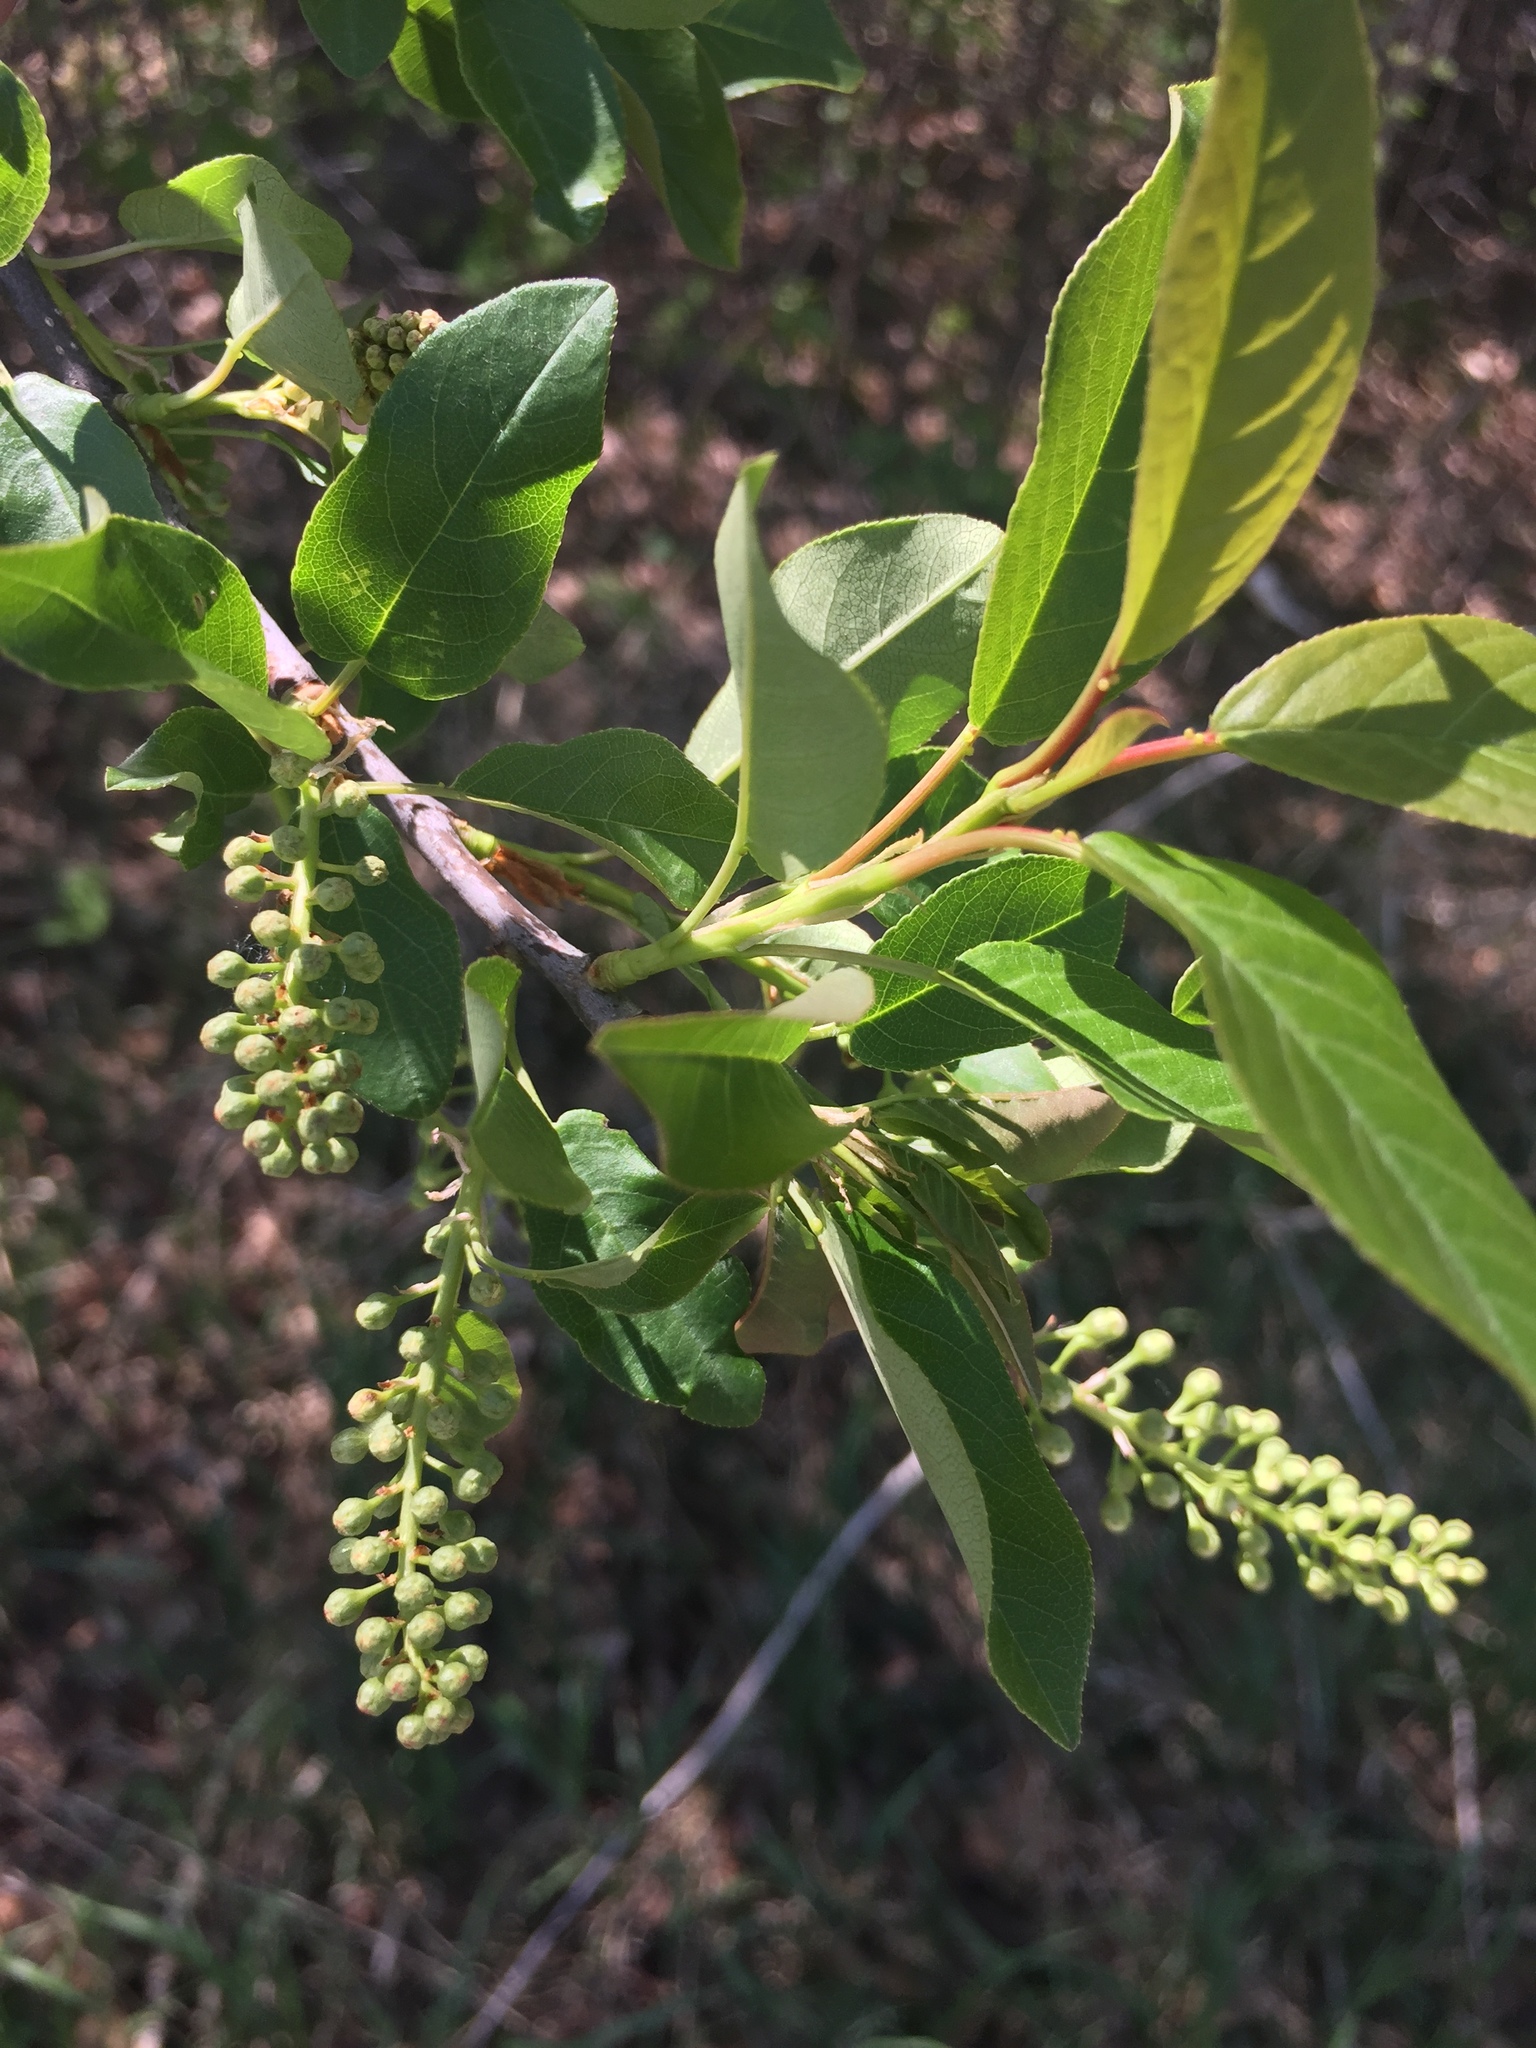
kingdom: Plantae
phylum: Tracheophyta
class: Magnoliopsida
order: Rosales
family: Rosaceae
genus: Prunus
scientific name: Prunus virginiana
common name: Chokecherry
